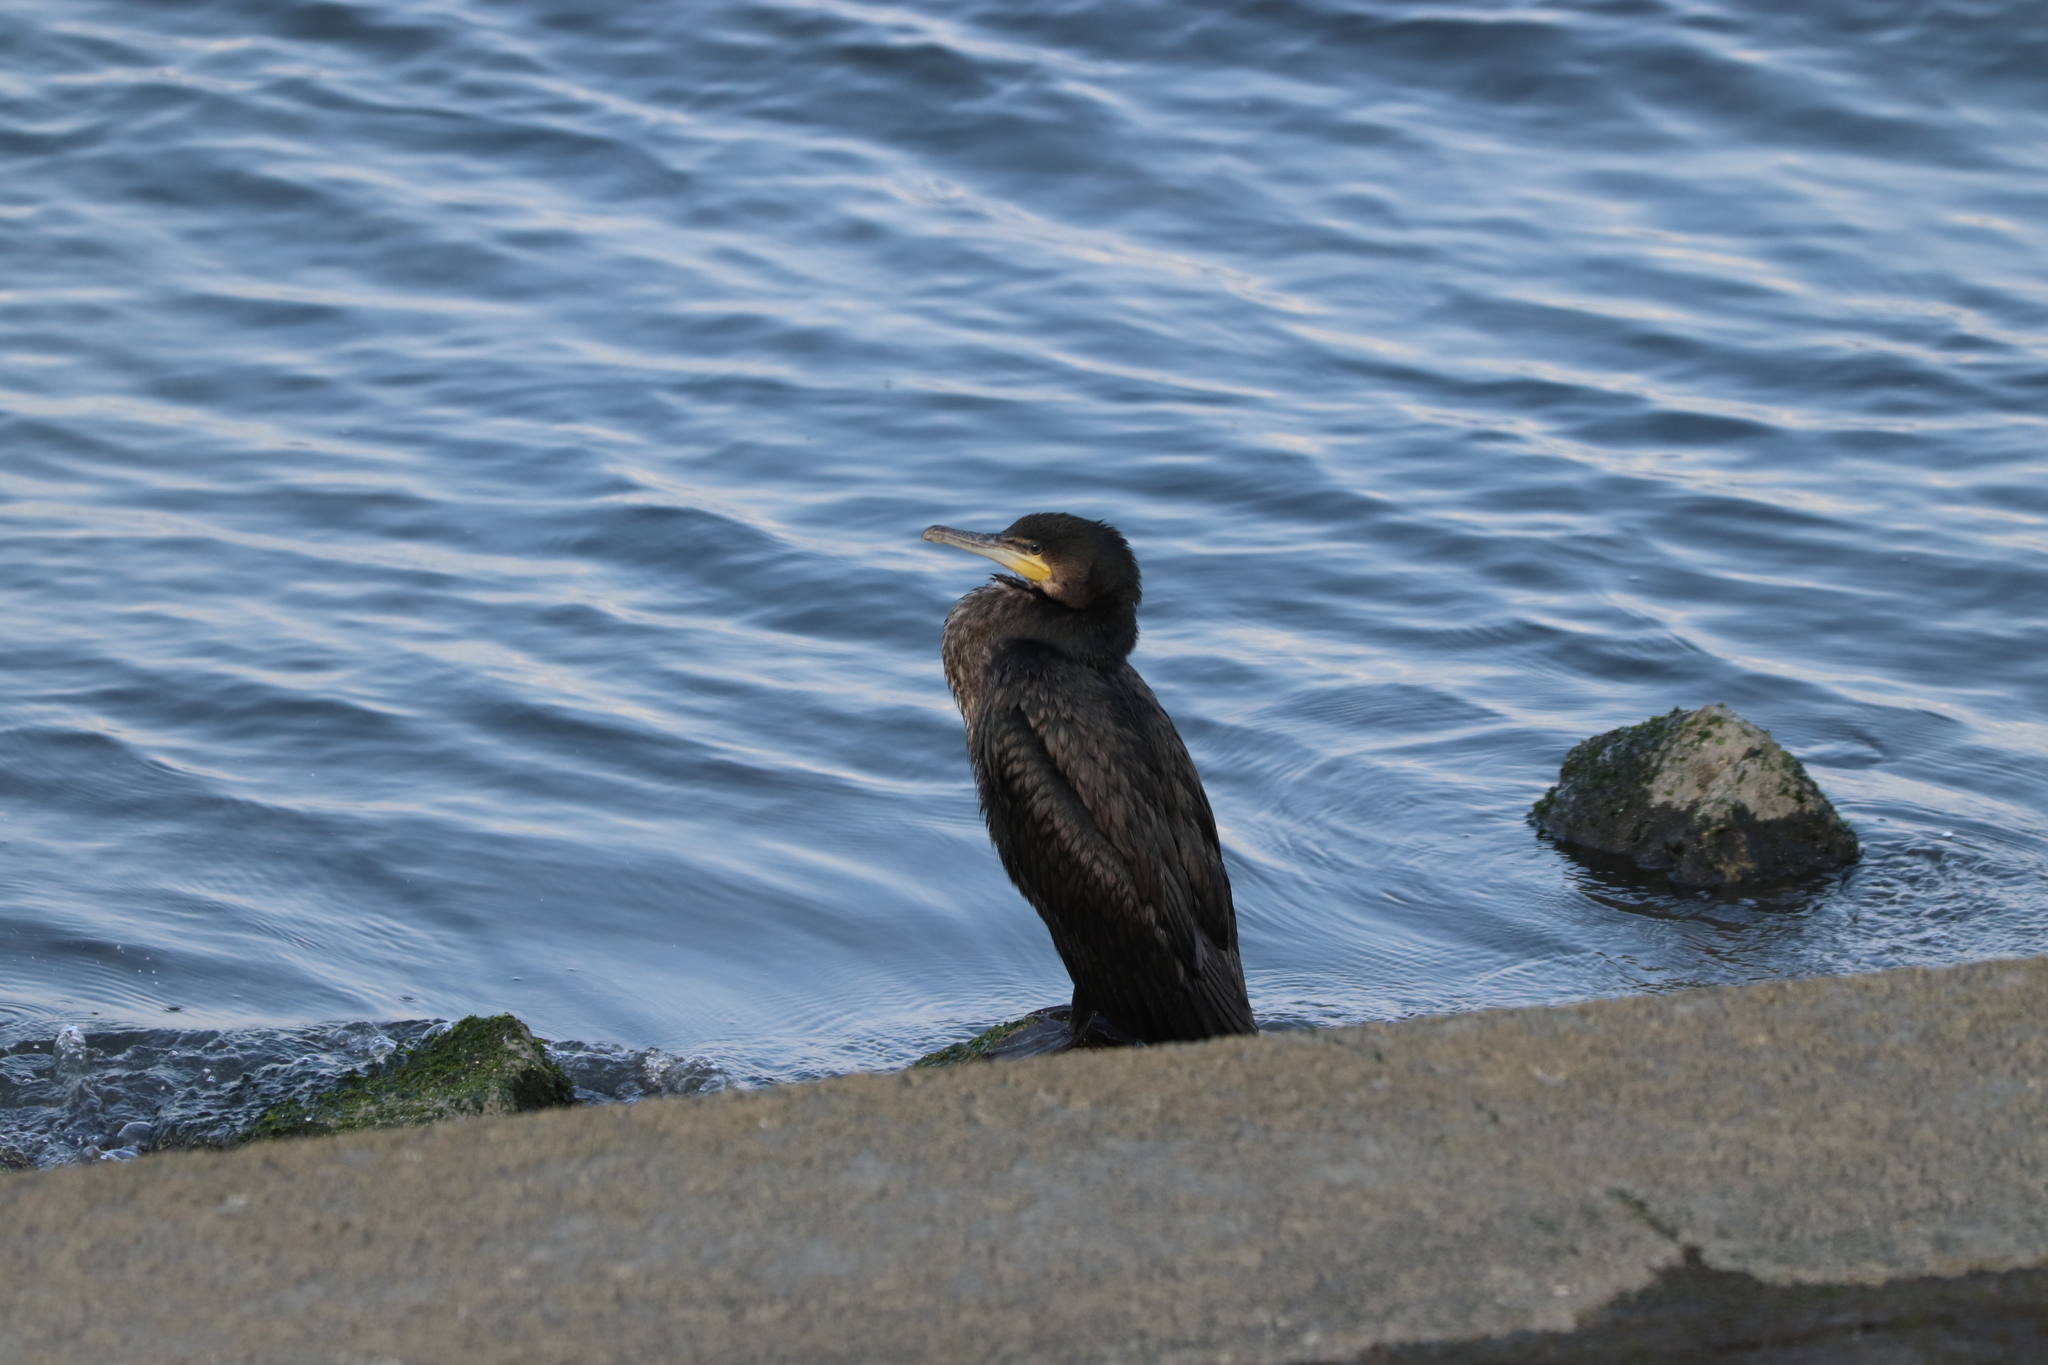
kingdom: Animalia
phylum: Chordata
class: Aves
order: Suliformes
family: Phalacrocoracidae
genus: Phalacrocorax
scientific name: Phalacrocorax carbo
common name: Great cormorant
